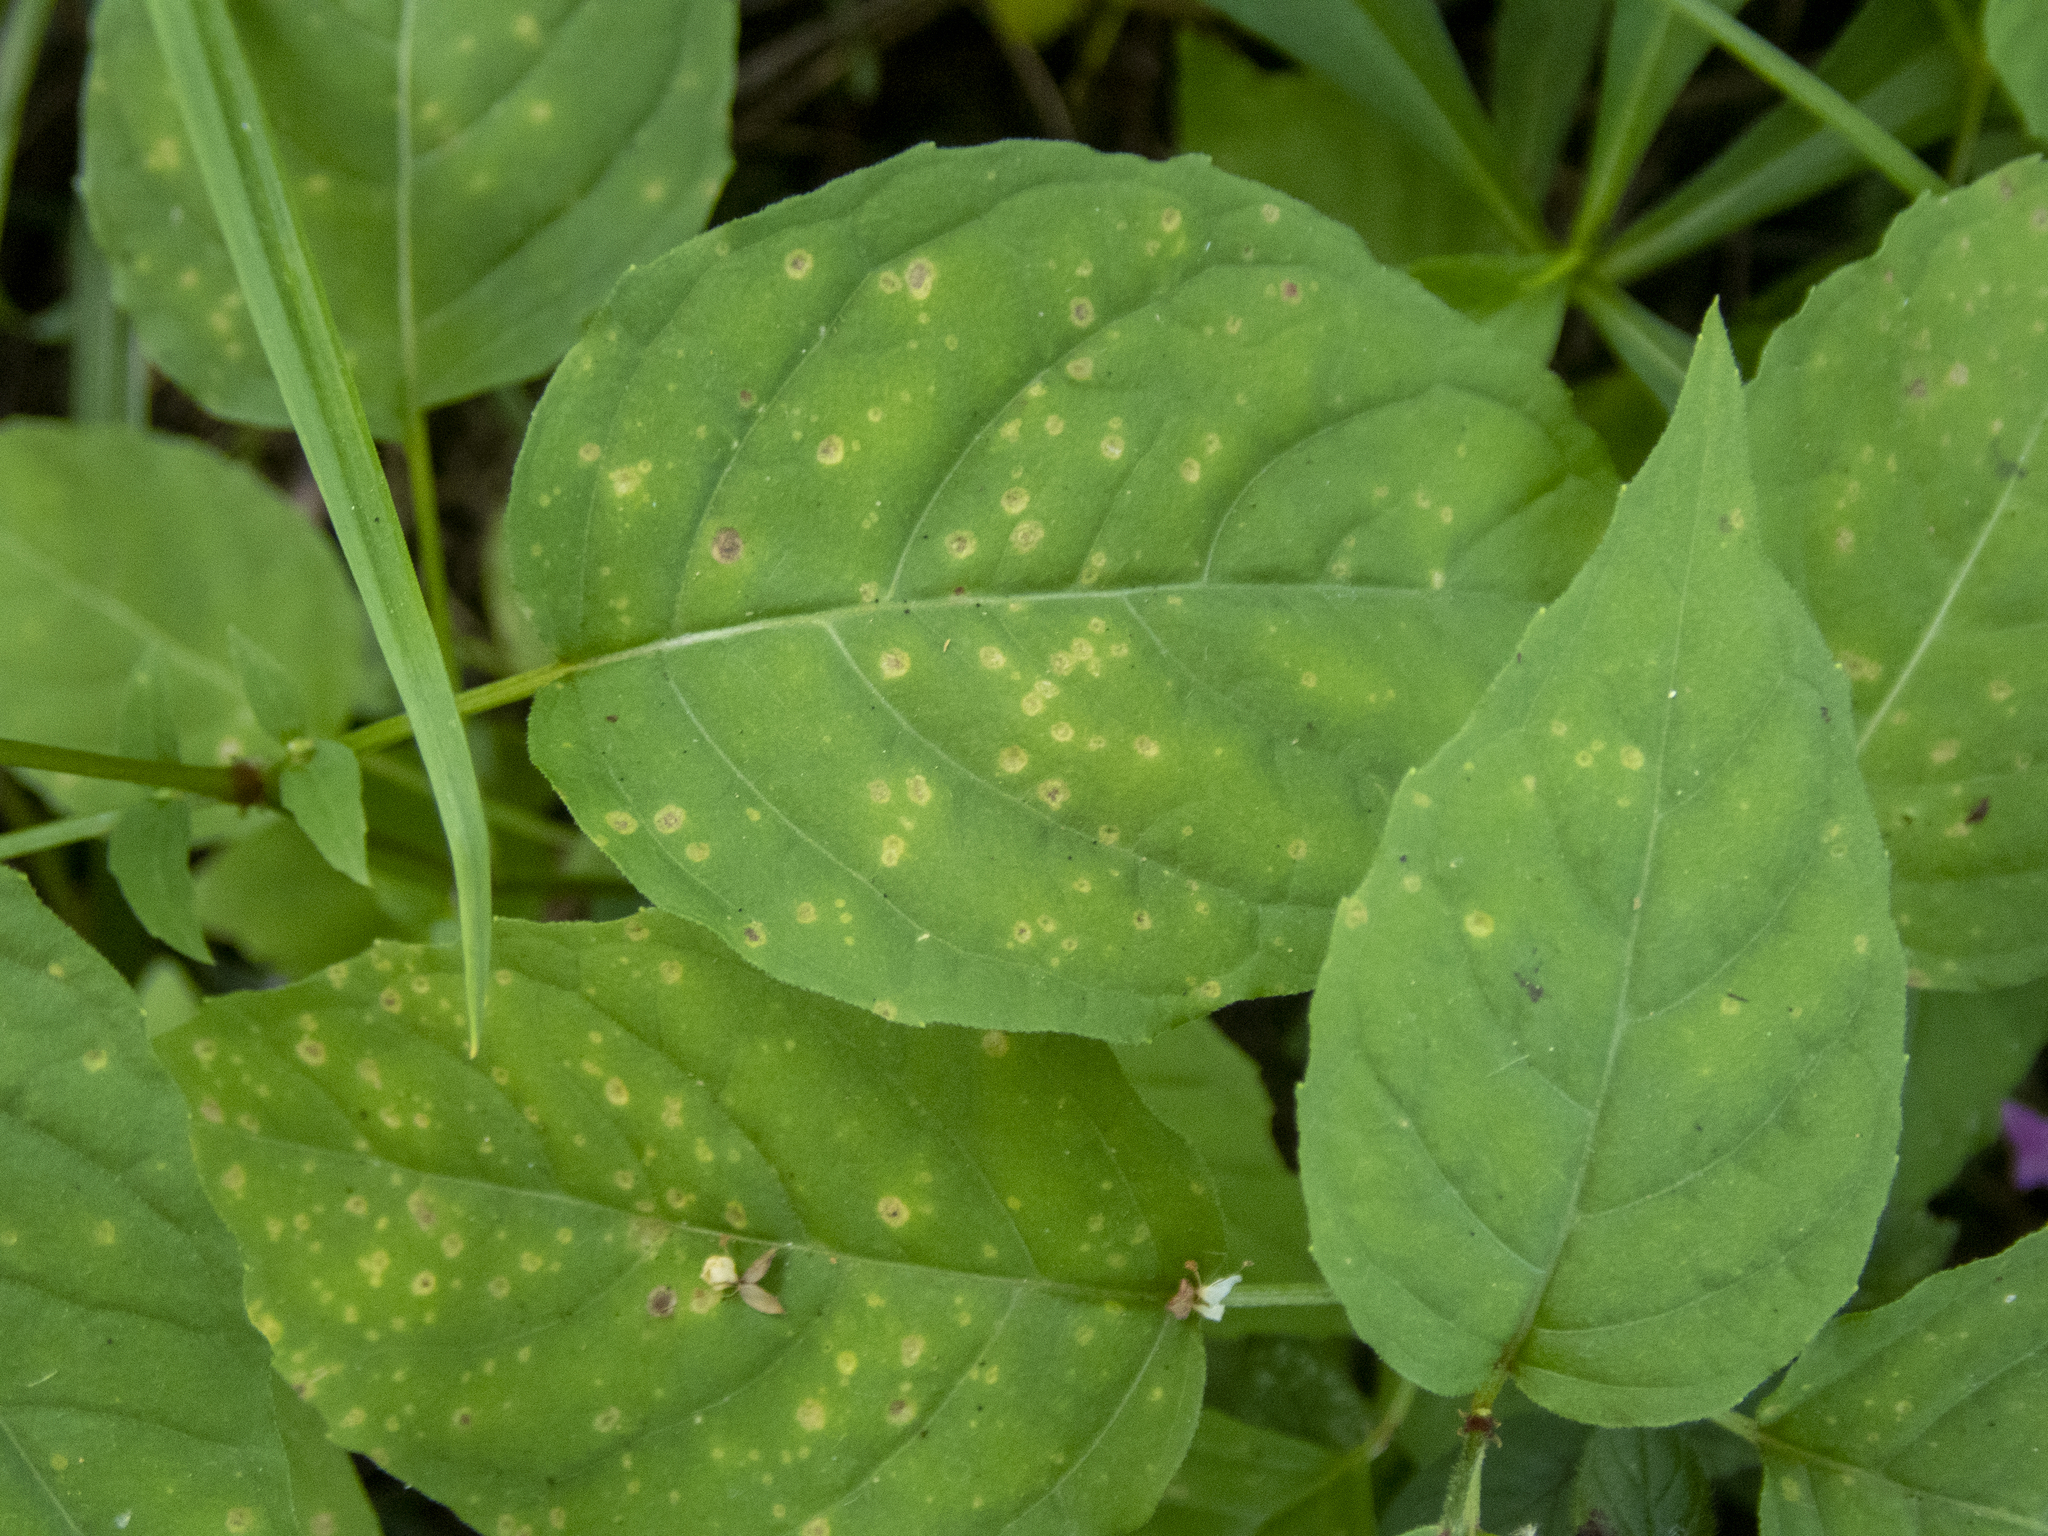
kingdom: Plantae
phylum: Tracheophyta
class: Magnoliopsida
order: Myrtales
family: Onagraceae
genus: Circaea
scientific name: Circaea canadensis
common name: Broad-leaved enchanter's nightshade
